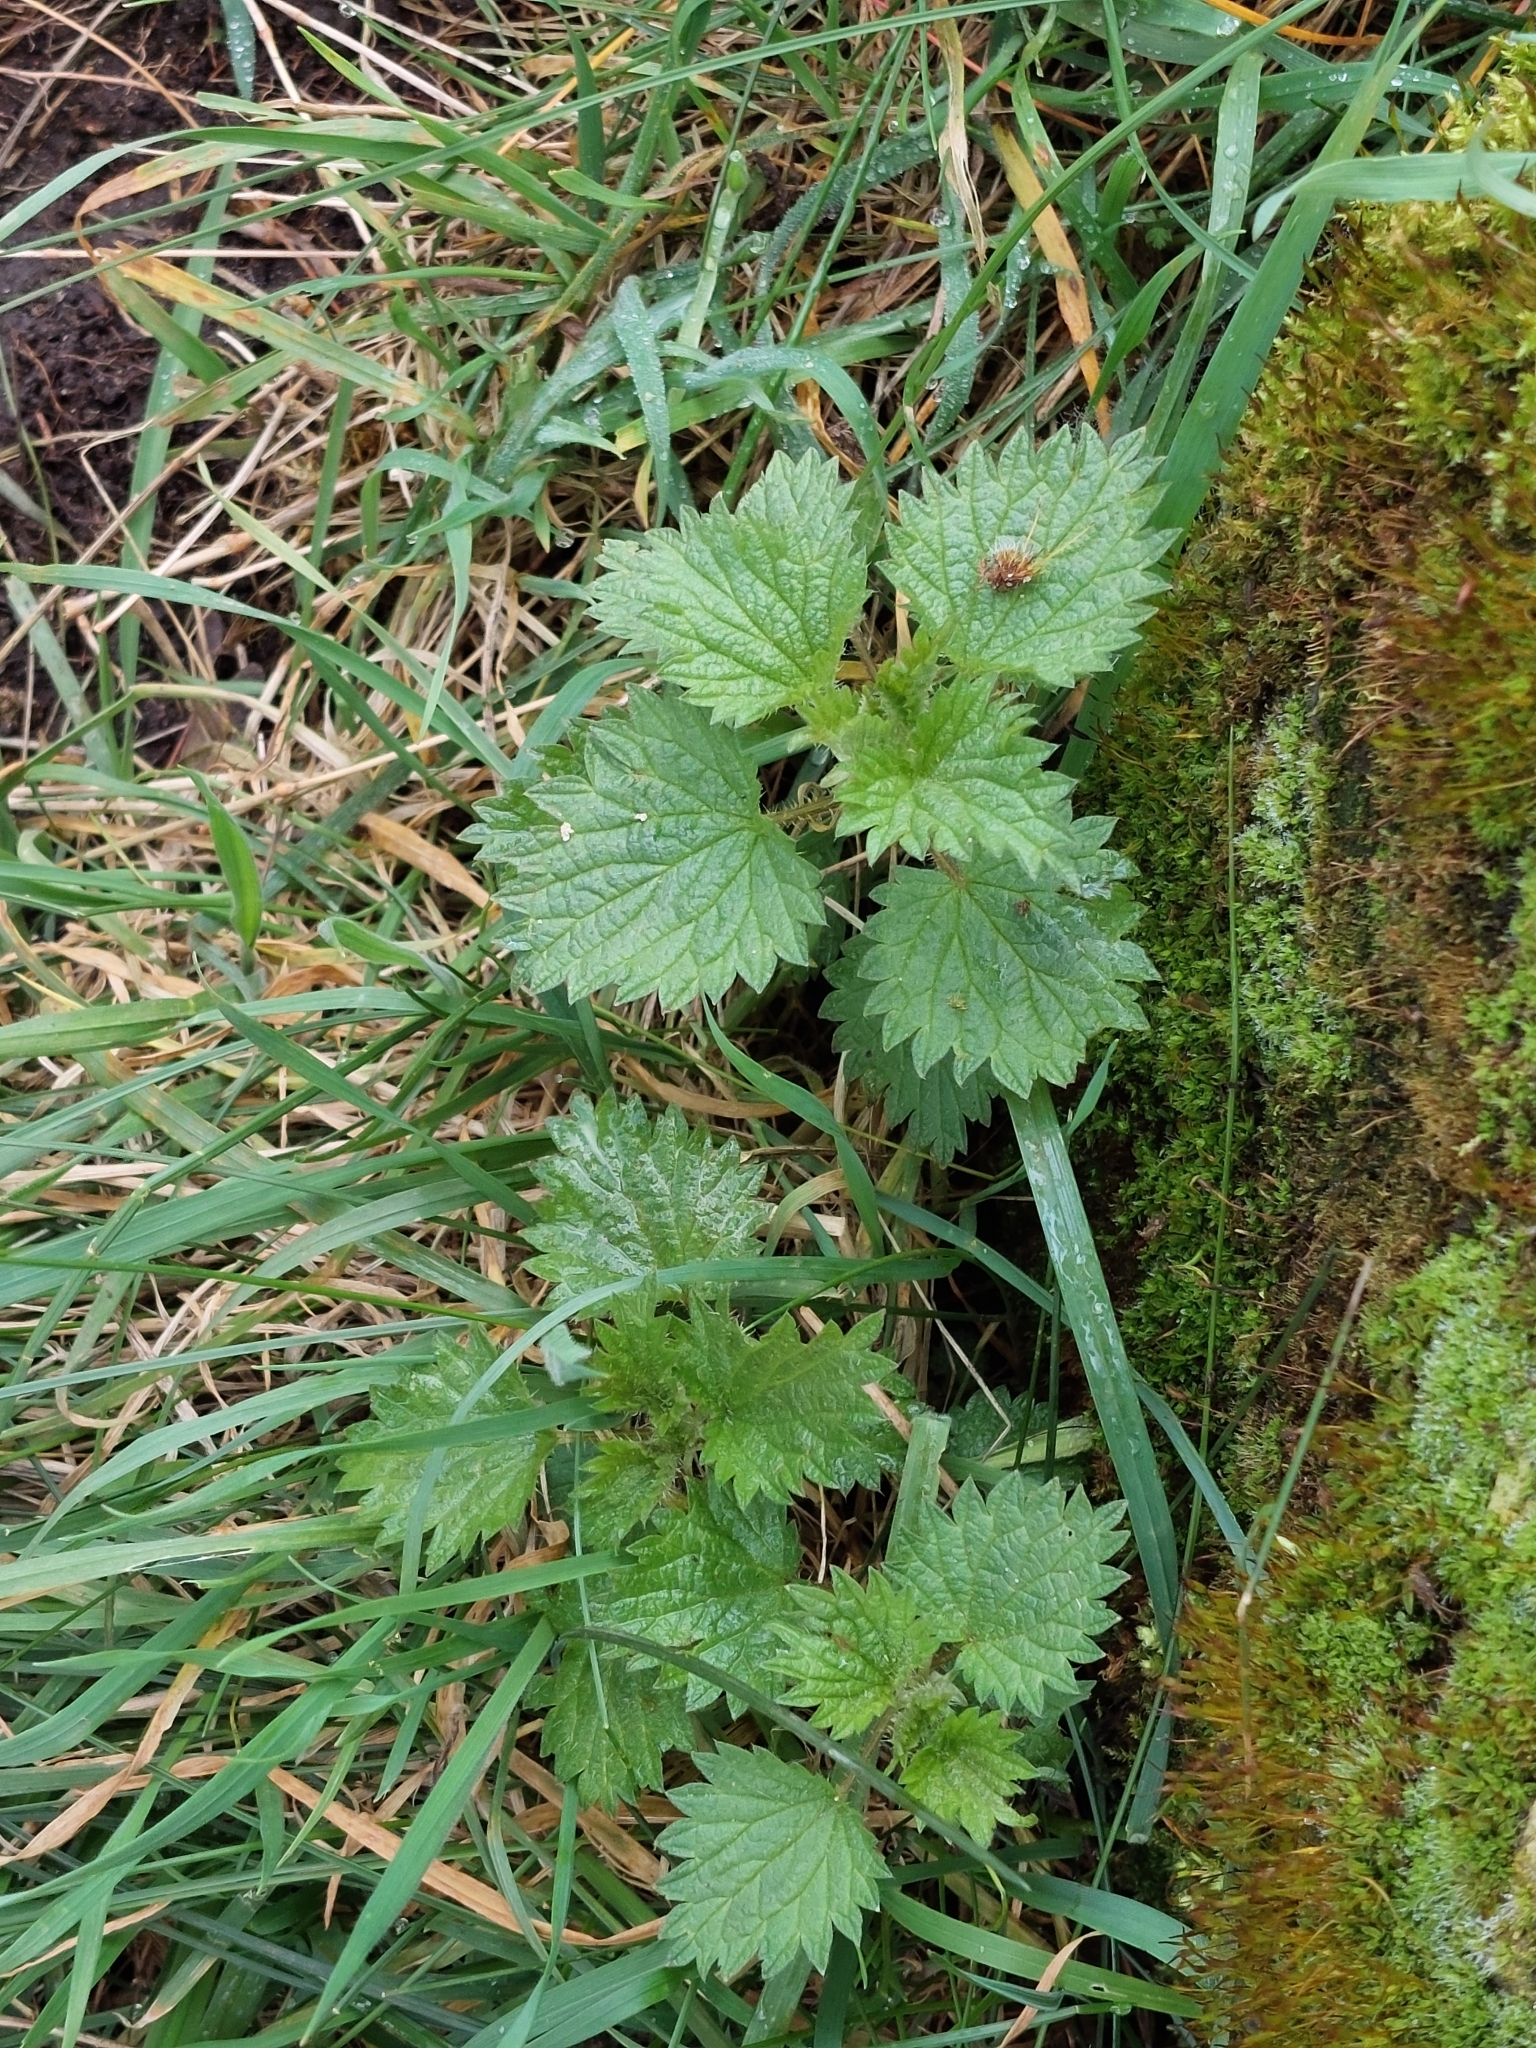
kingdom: Plantae
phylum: Tracheophyta
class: Magnoliopsida
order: Rosales
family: Urticaceae
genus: Urtica
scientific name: Urtica dioica
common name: Common nettle
